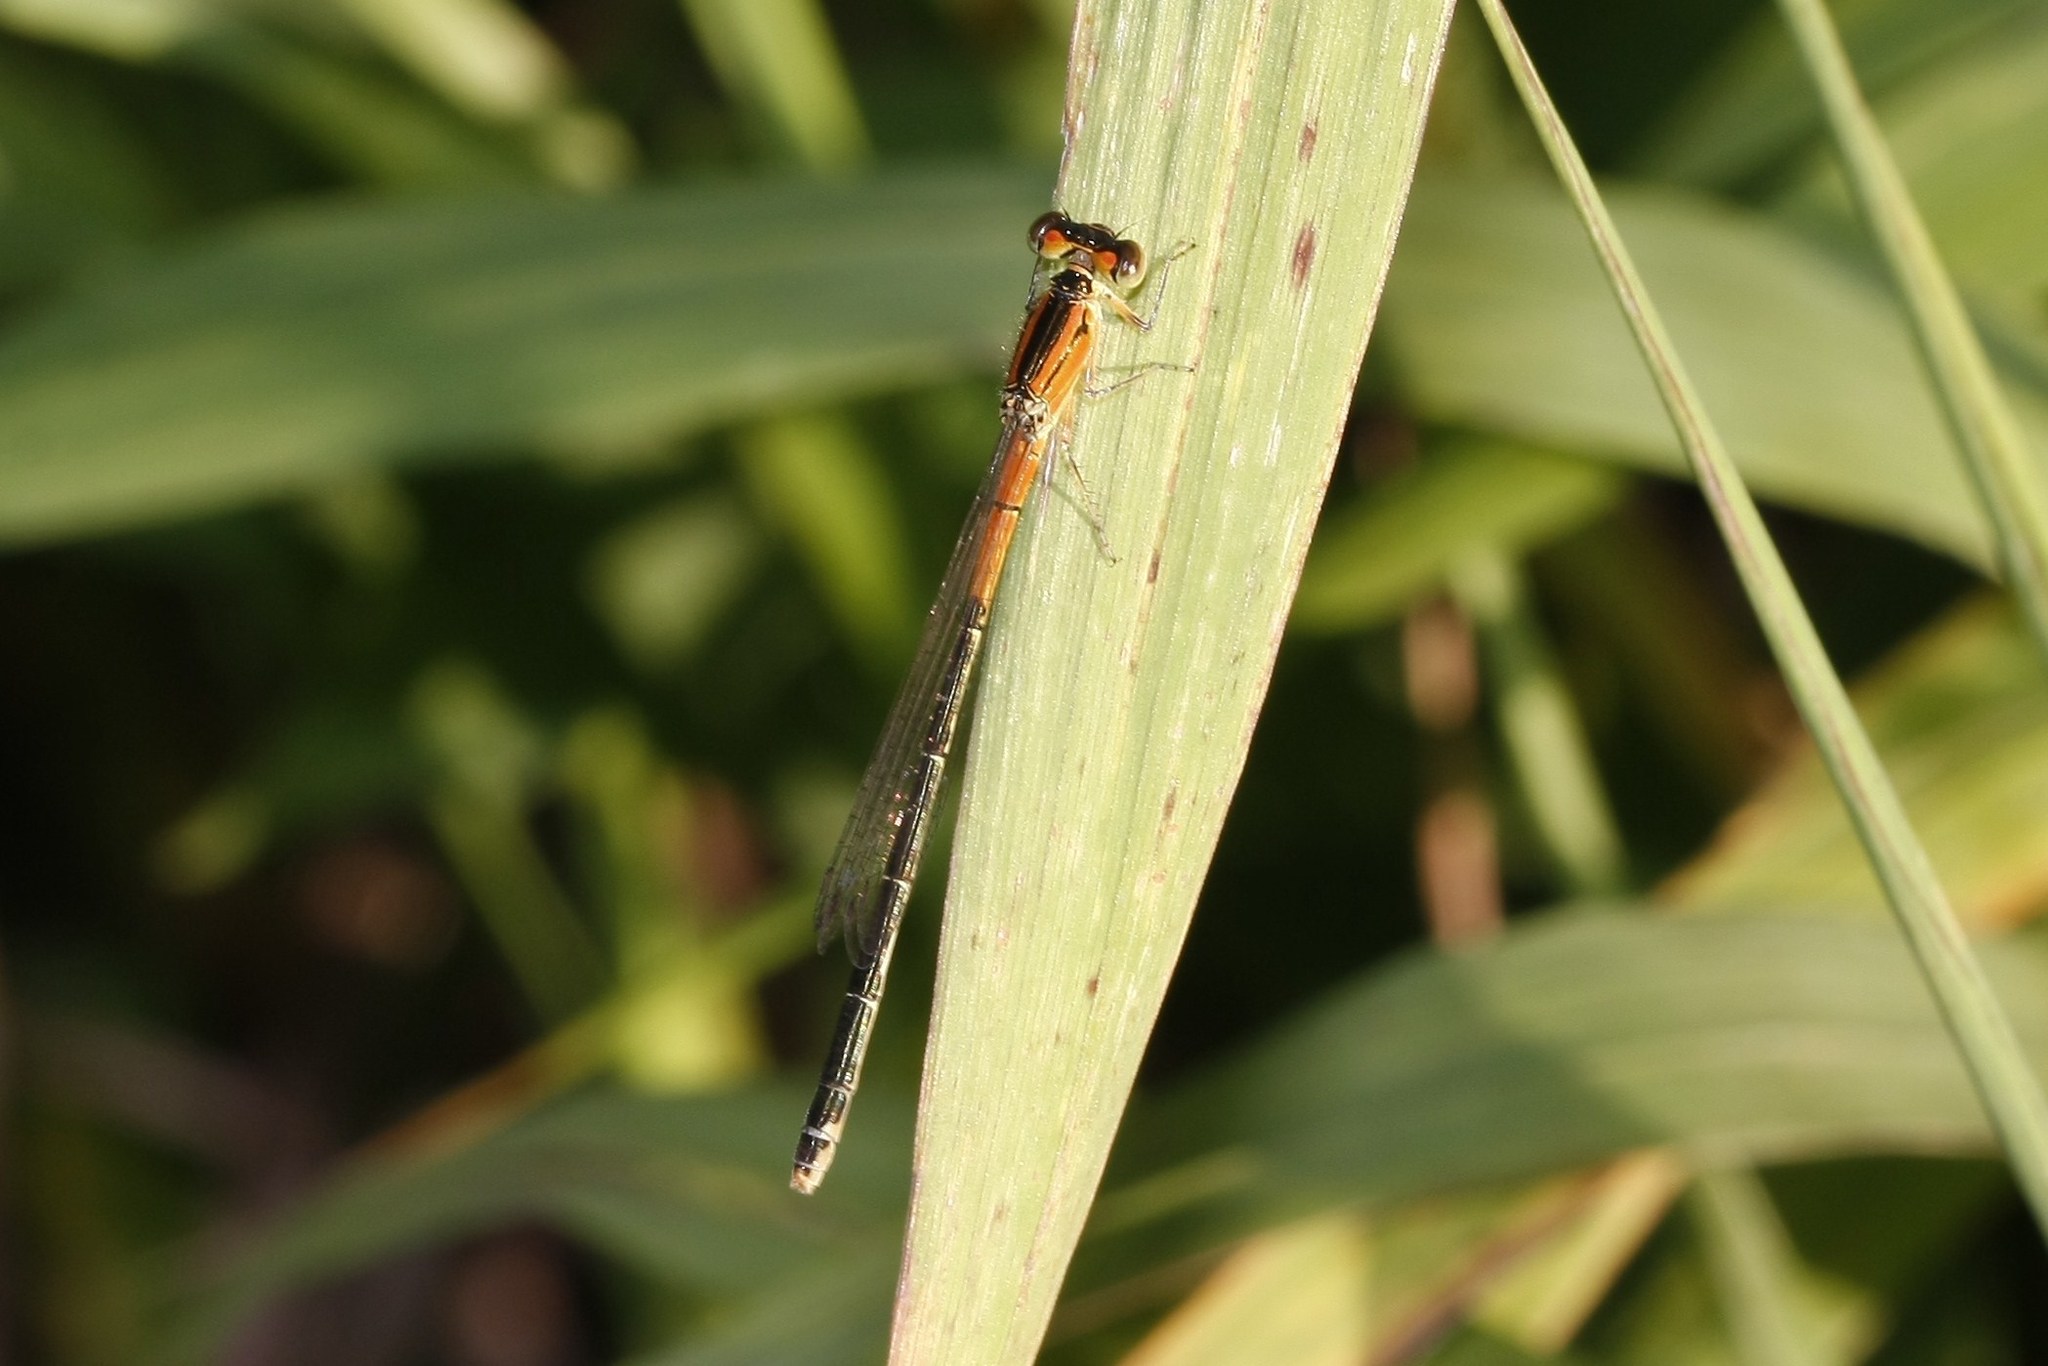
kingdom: Animalia
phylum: Arthropoda
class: Insecta
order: Odonata
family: Coenagrionidae
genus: Ischnura
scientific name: Ischnura verticalis
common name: Eastern forktail
